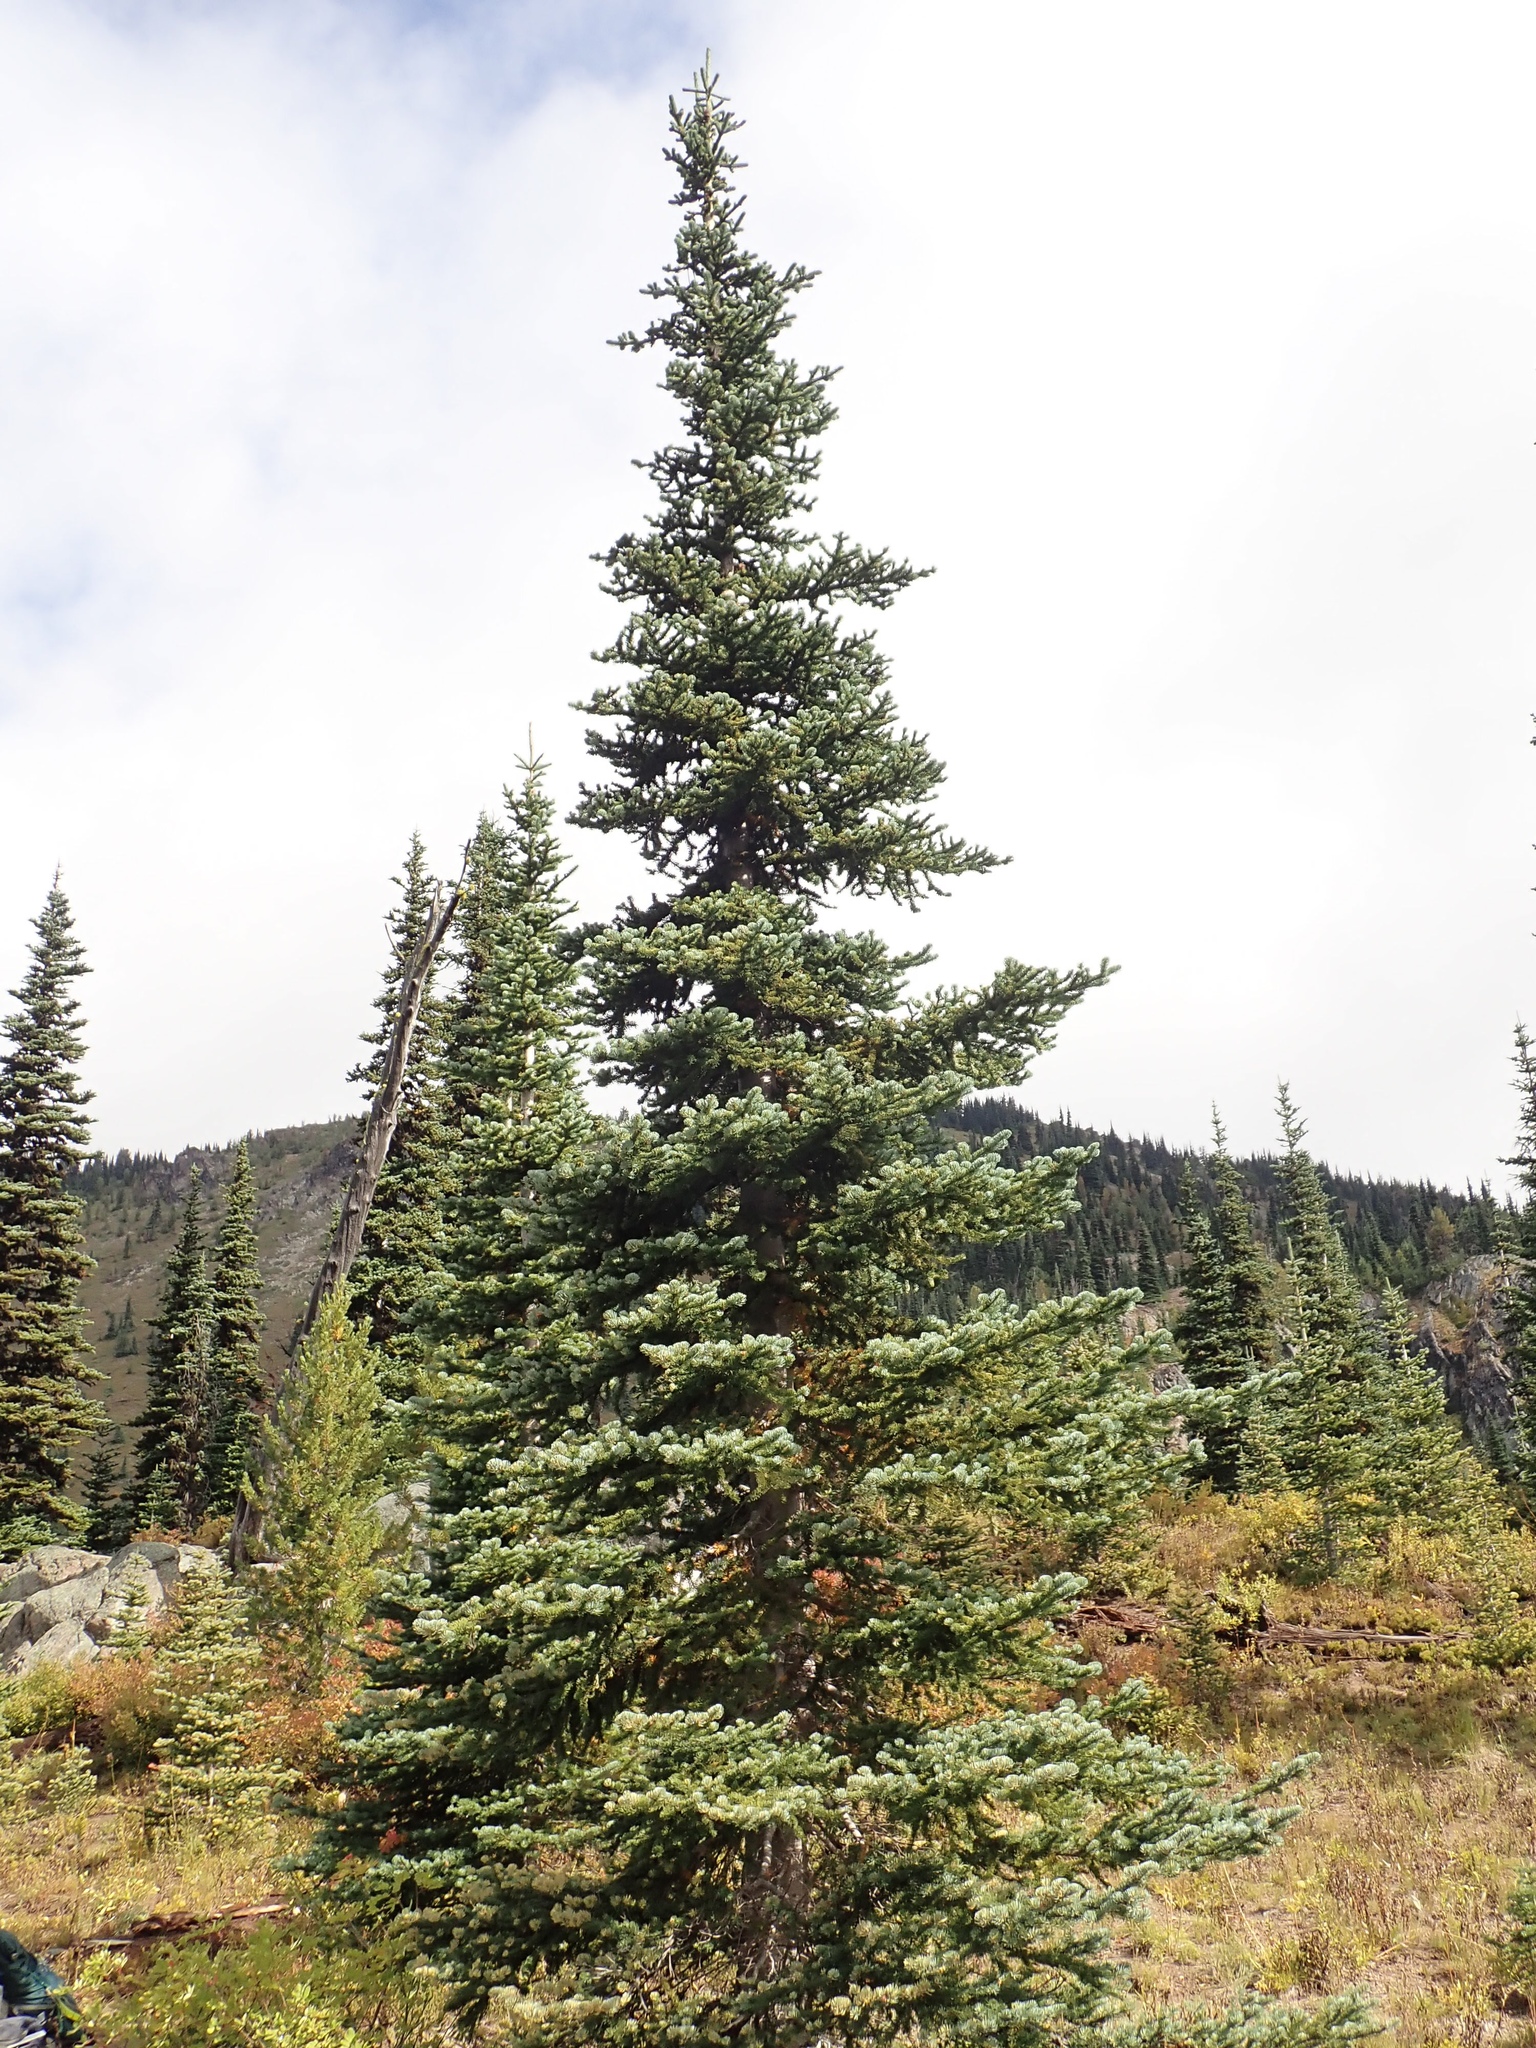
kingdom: Plantae
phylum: Tracheophyta
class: Pinopsida
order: Pinales
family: Pinaceae
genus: Abies
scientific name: Abies lasiocarpa
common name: Subalpine fir
